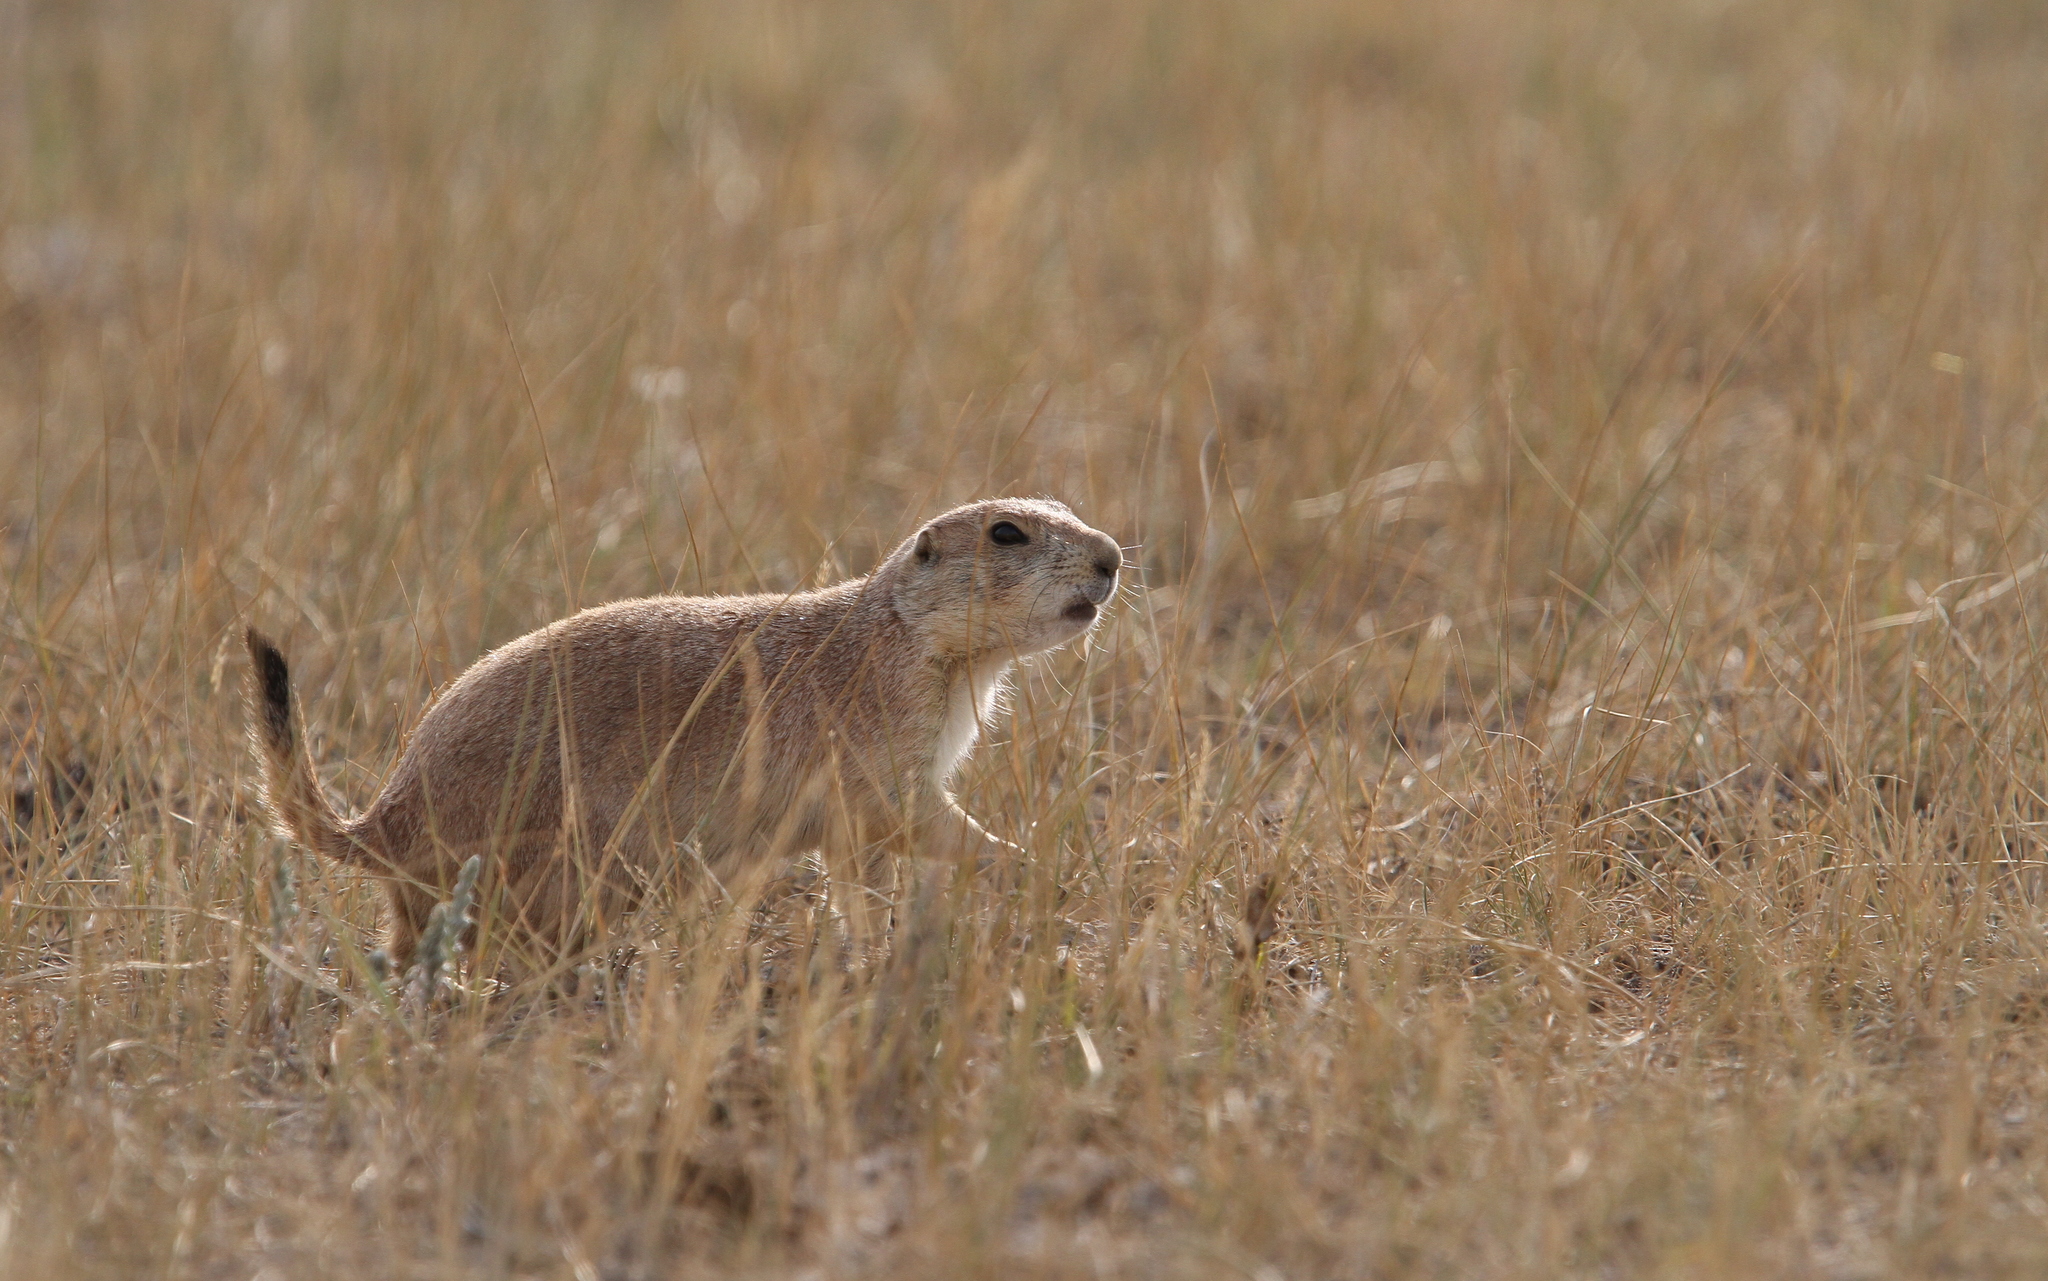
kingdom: Animalia
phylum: Chordata
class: Mammalia
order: Rodentia
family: Sciuridae
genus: Cynomys
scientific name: Cynomys ludovicianus
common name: Black-tailed prairie dog
